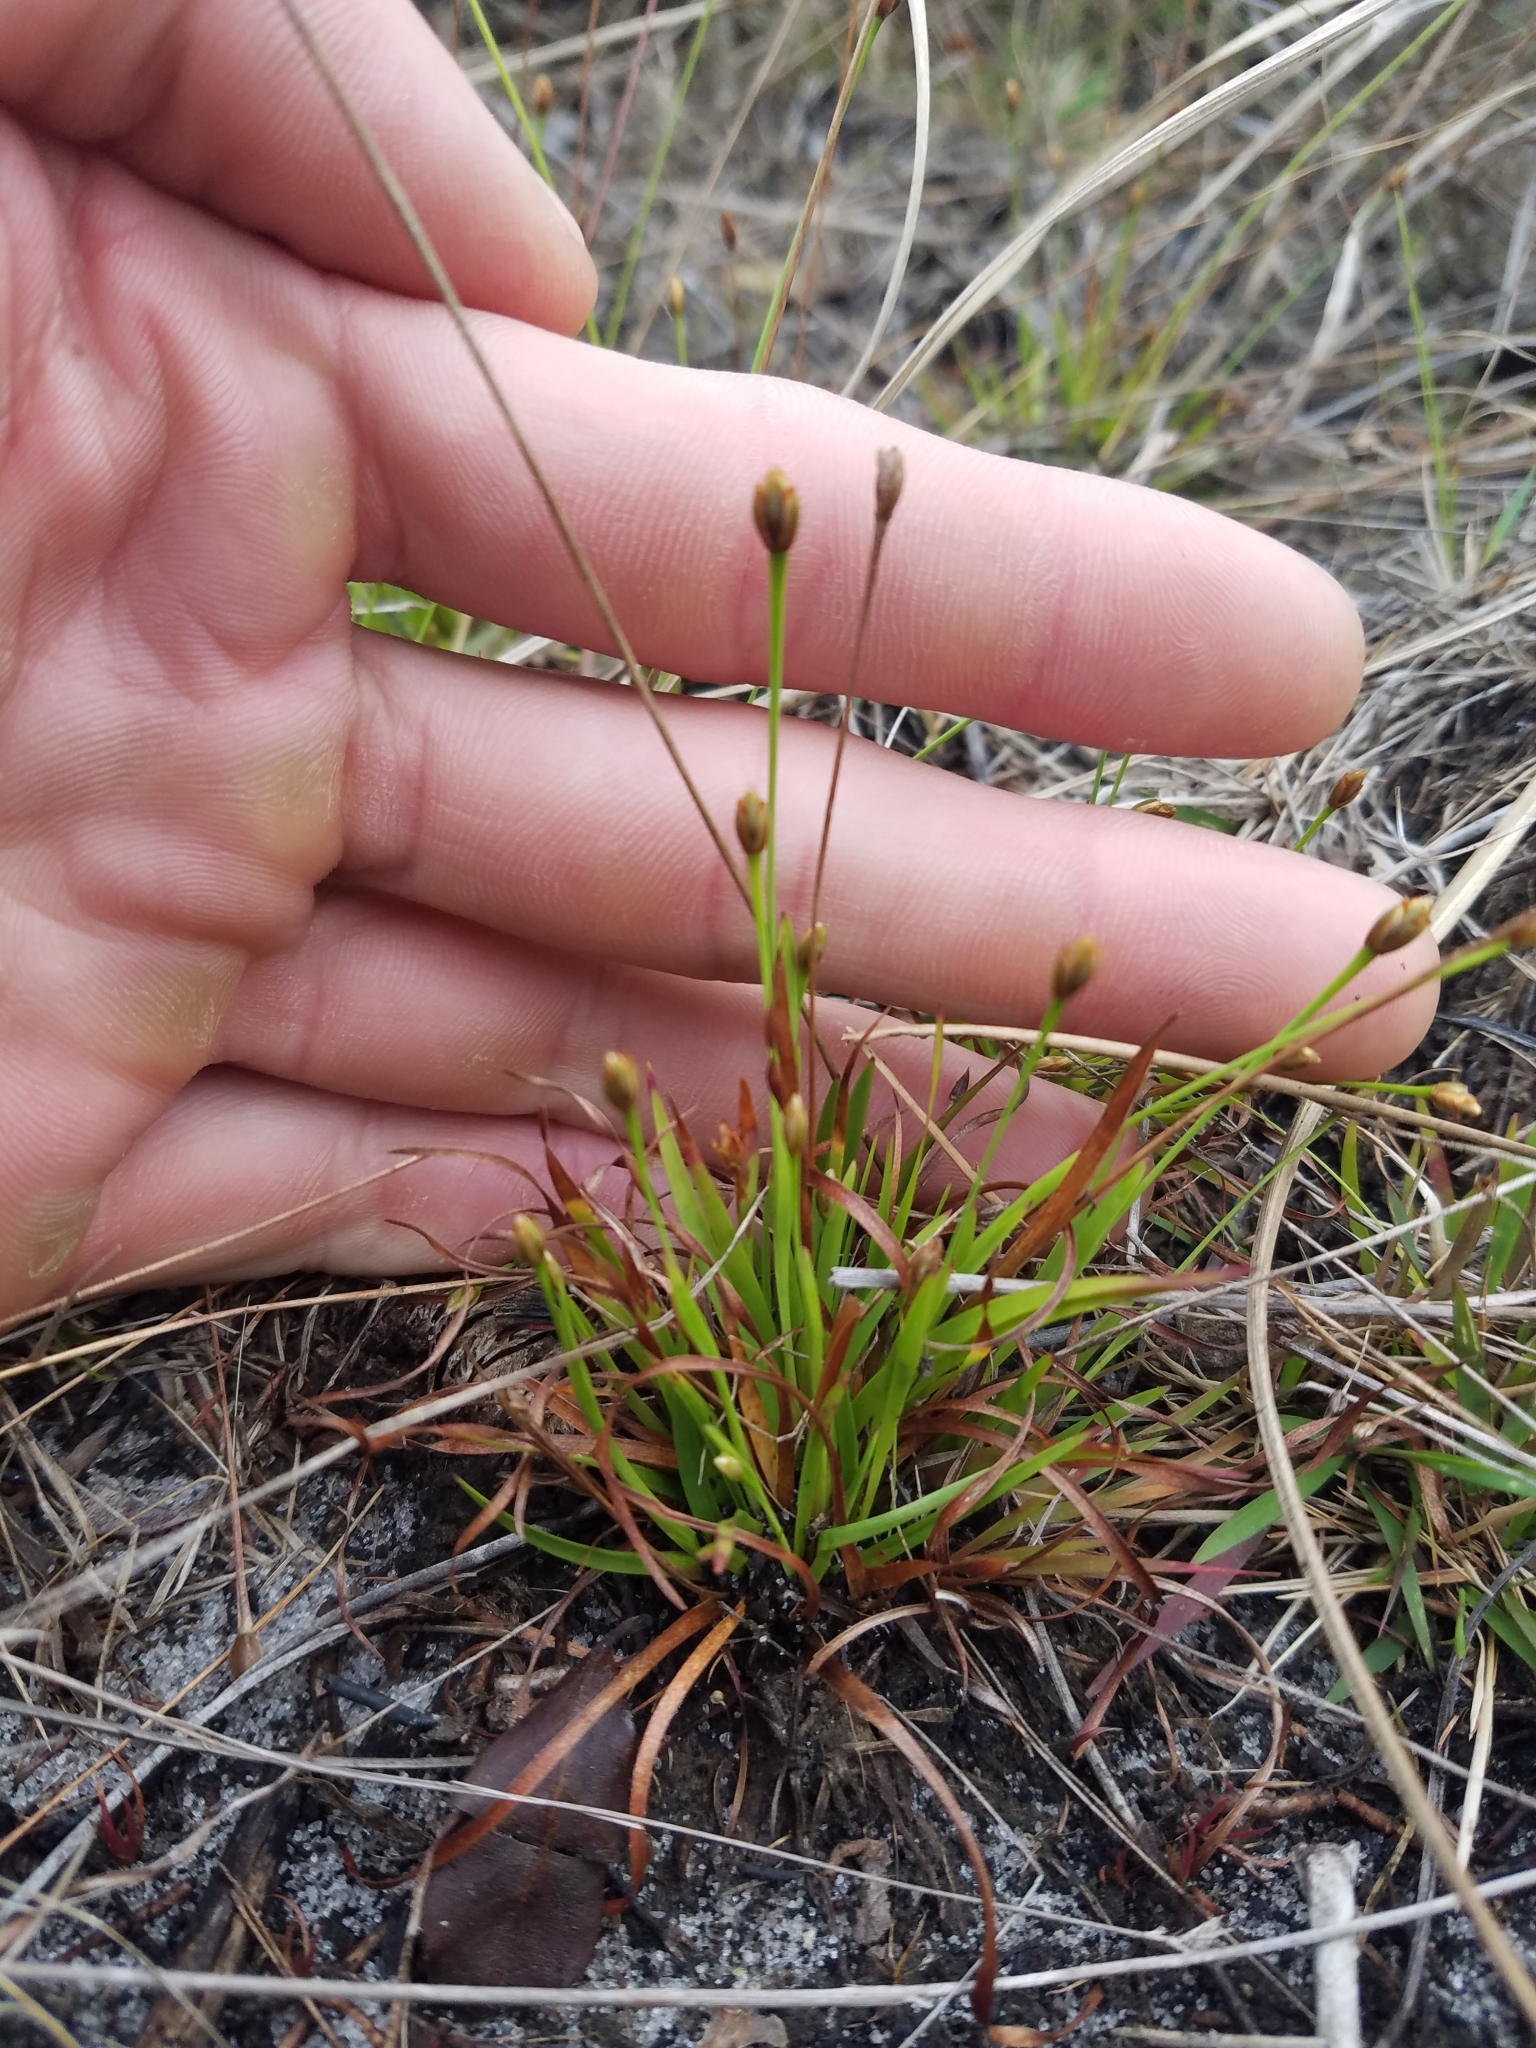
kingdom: Plantae
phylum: Tracheophyta
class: Liliopsida
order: Poales
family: Xyridaceae
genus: Xyris
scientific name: Xyris brevifolia
